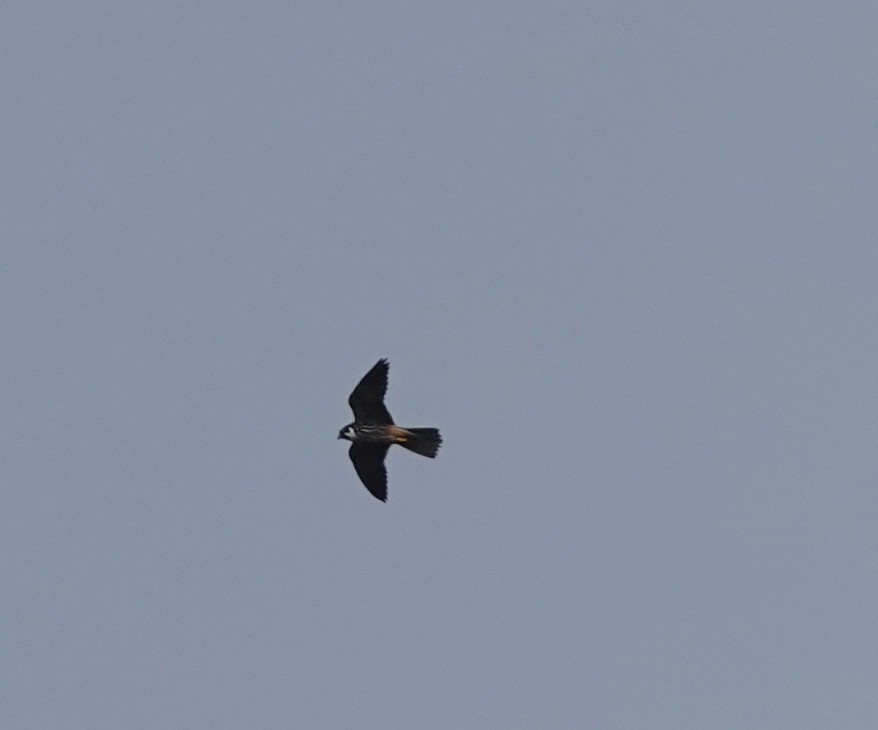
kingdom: Animalia
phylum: Chordata
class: Aves
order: Falconiformes
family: Falconidae
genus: Falco
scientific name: Falco subbuteo
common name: Eurasian hobby
